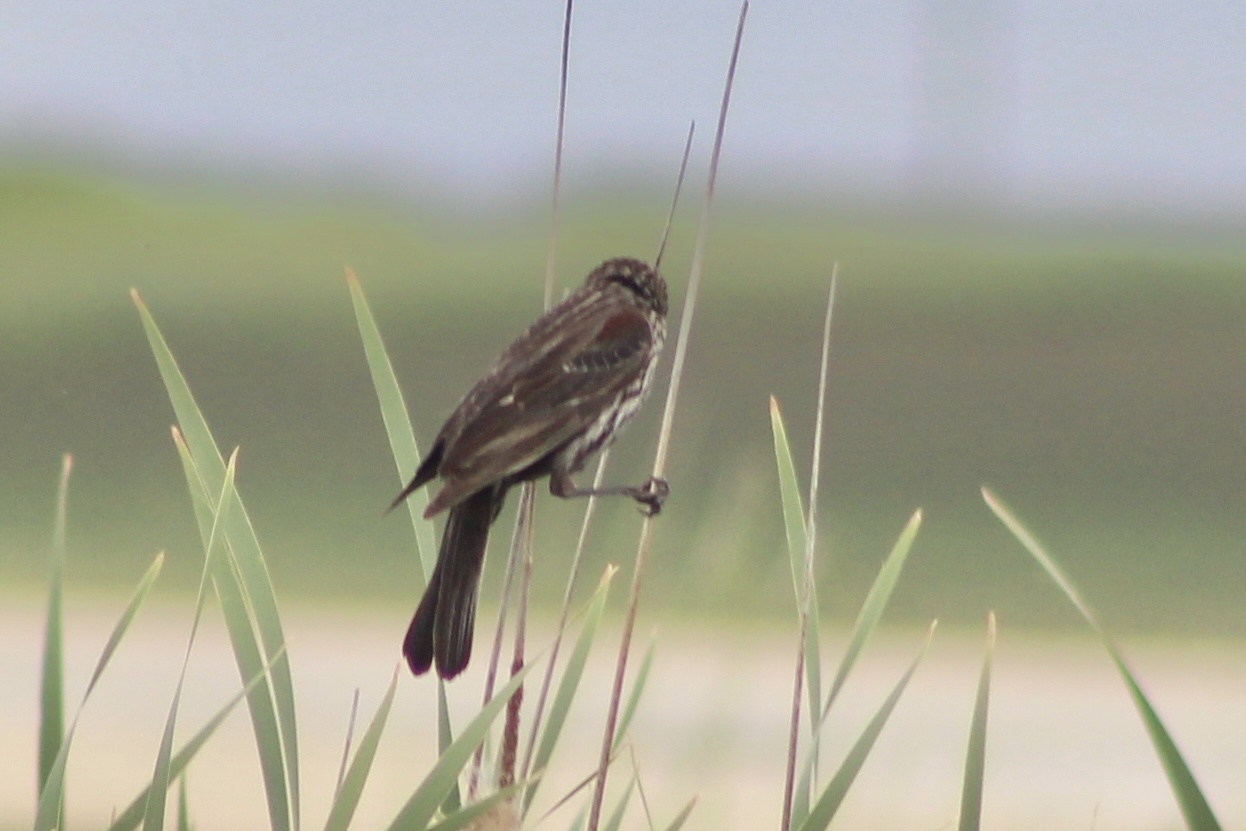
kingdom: Animalia
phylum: Chordata
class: Aves
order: Passeriformes
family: Icteridae
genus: Agelaius
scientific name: Agelaius phoeniceus
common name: Red-winged blackbird
